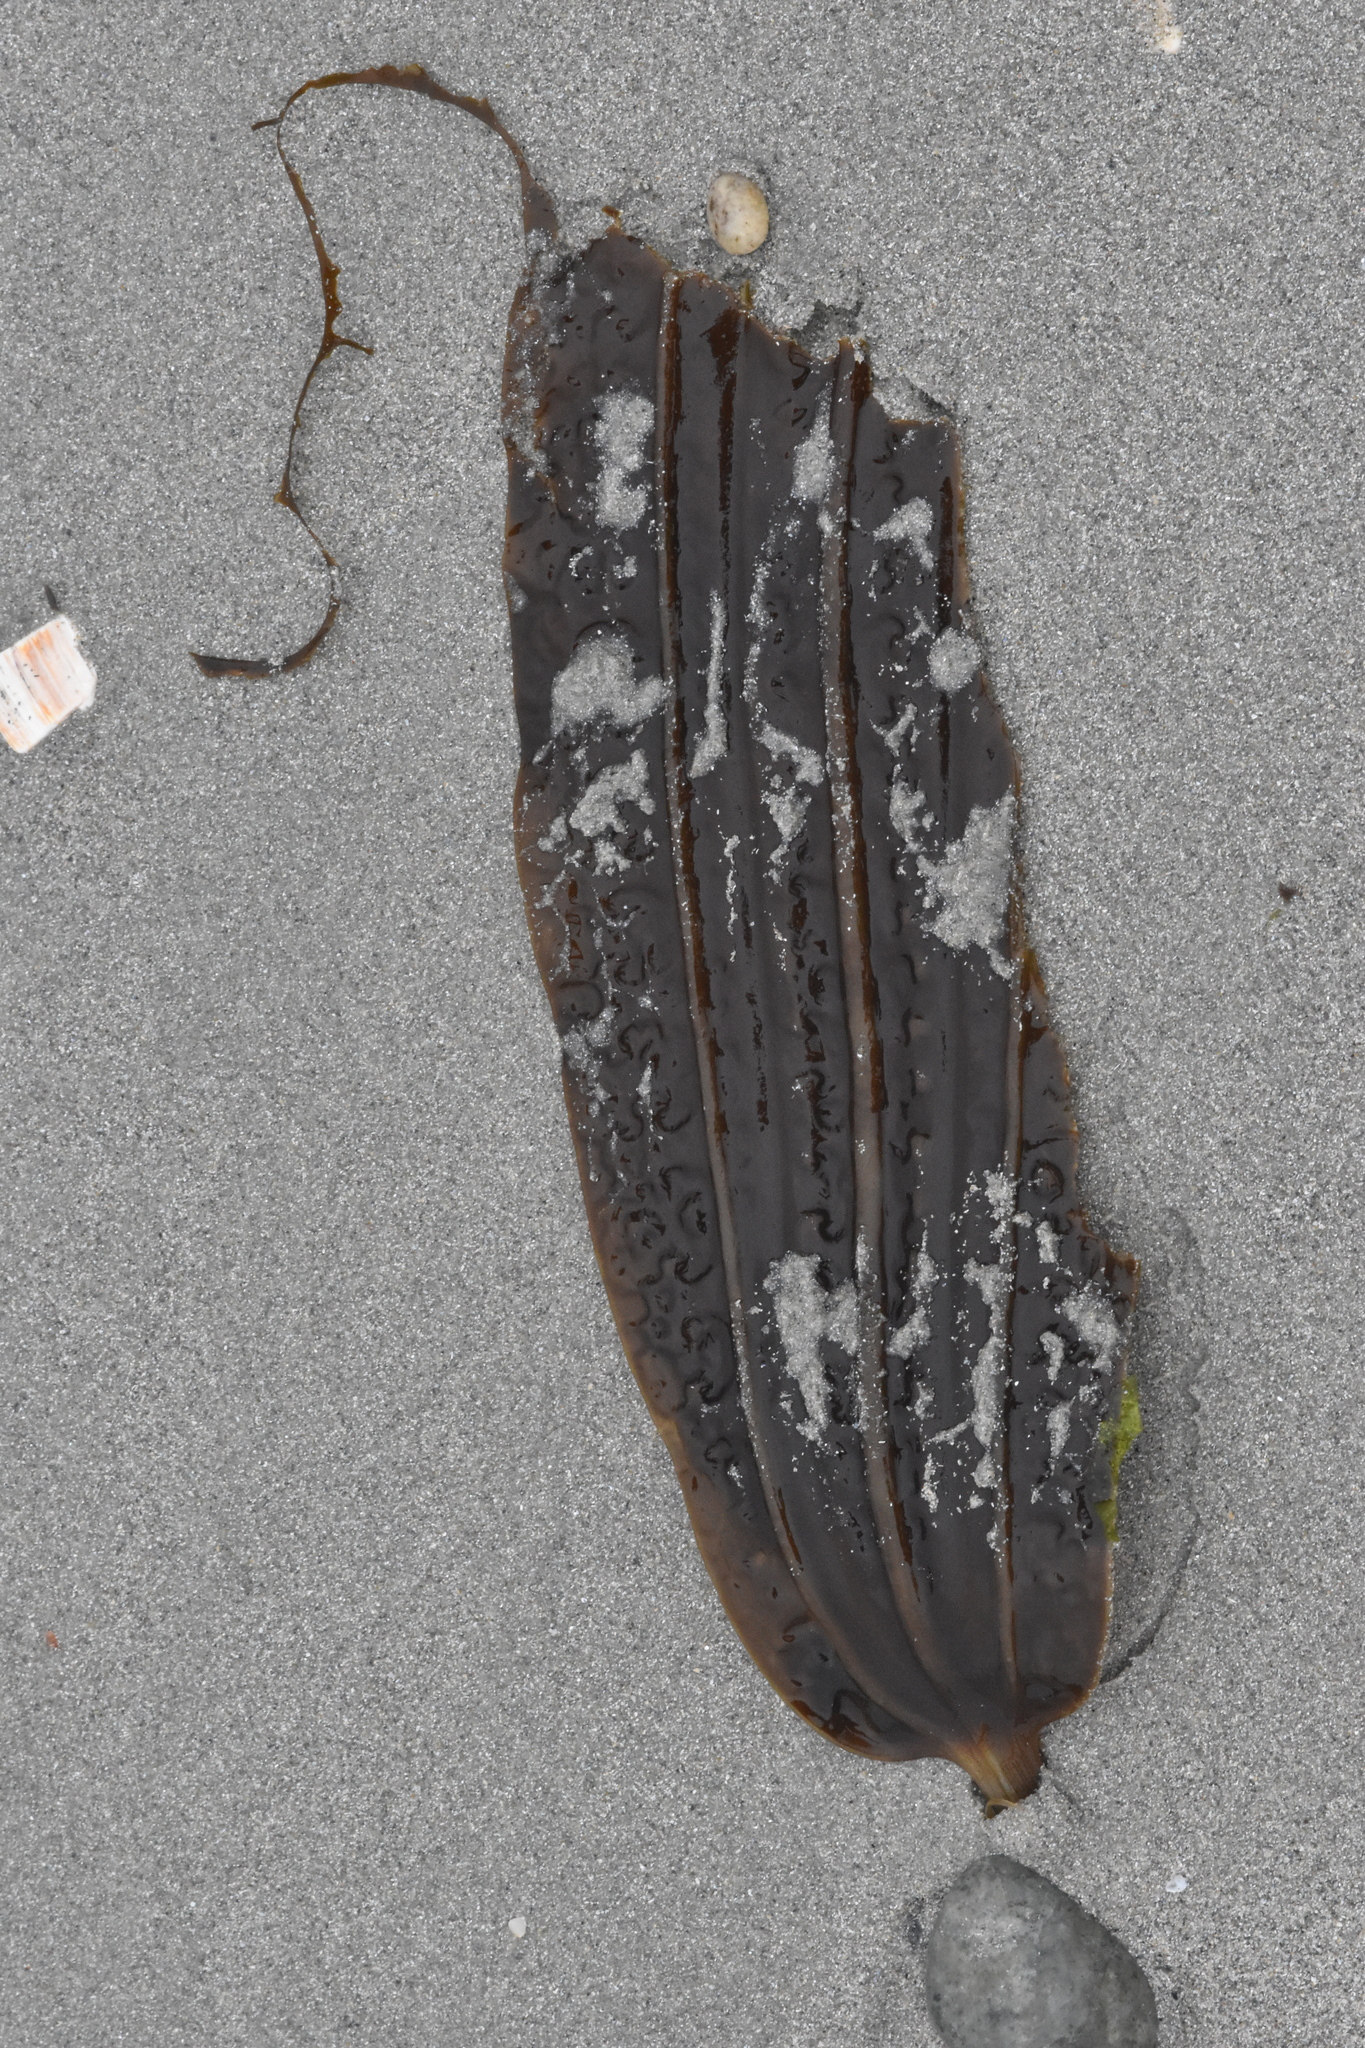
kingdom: Chromista
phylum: Ochrophyta
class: Phaeophyceae
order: Laminariales
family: Costariaceae
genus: Costaria
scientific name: Costaria costata
